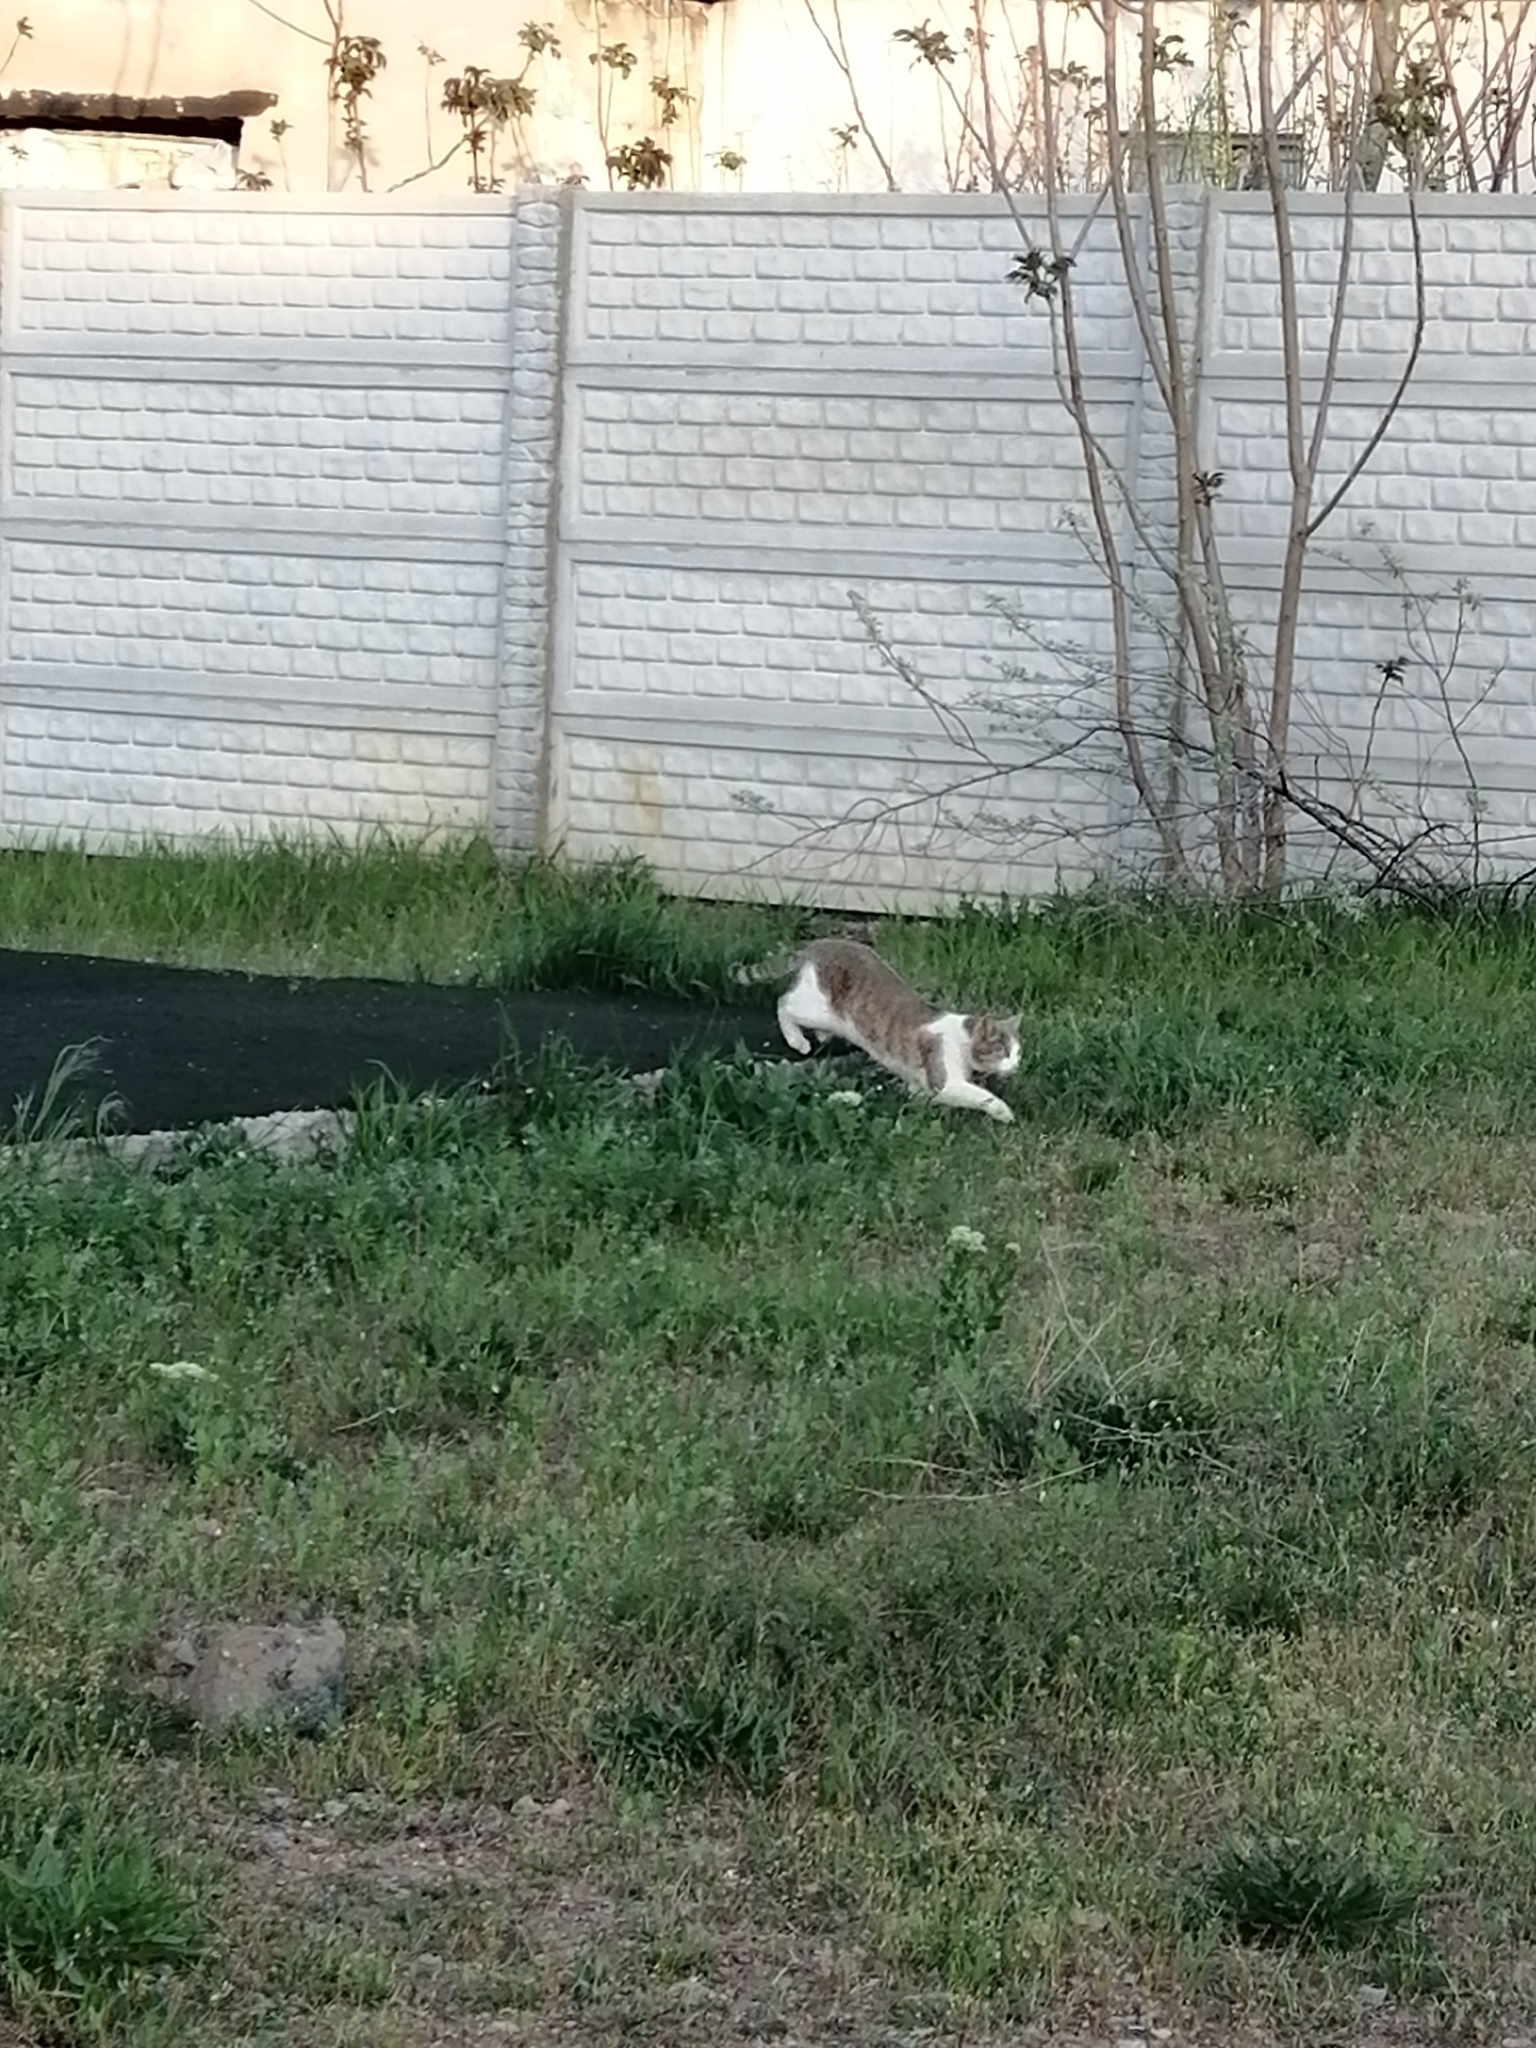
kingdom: Animalia
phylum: Chordata
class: Mammalia
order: Carnivora
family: Felidae
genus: Felis
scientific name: Felis catus
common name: Domestic cat
